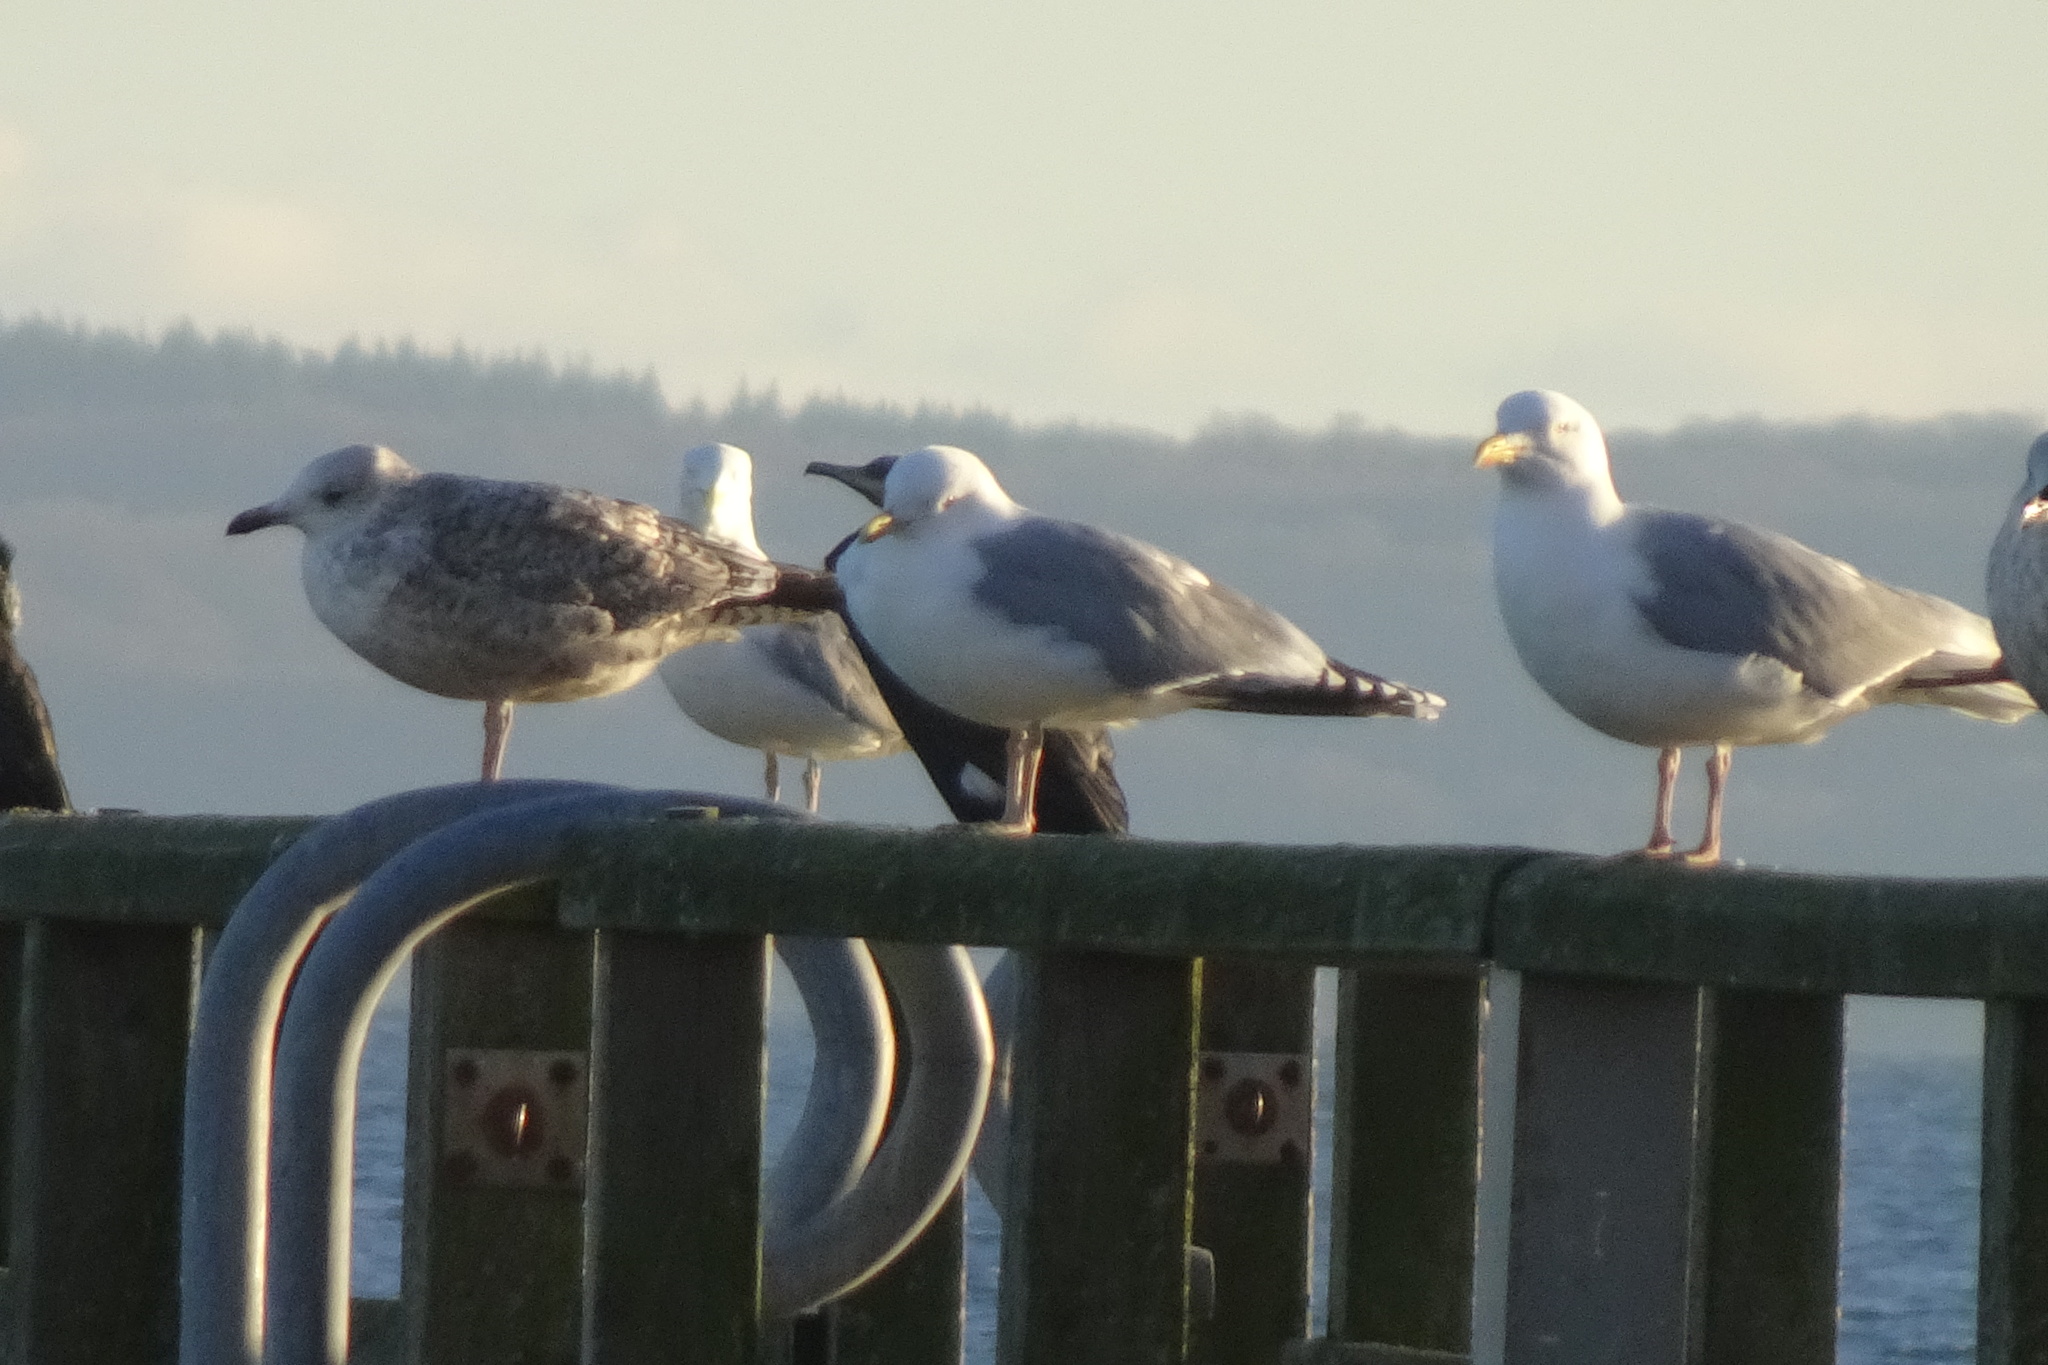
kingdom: Animalia
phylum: Chordata
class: Aves
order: Charadriiformes
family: Laridae
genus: Larus
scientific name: Larus argentatus
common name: Herring gull
